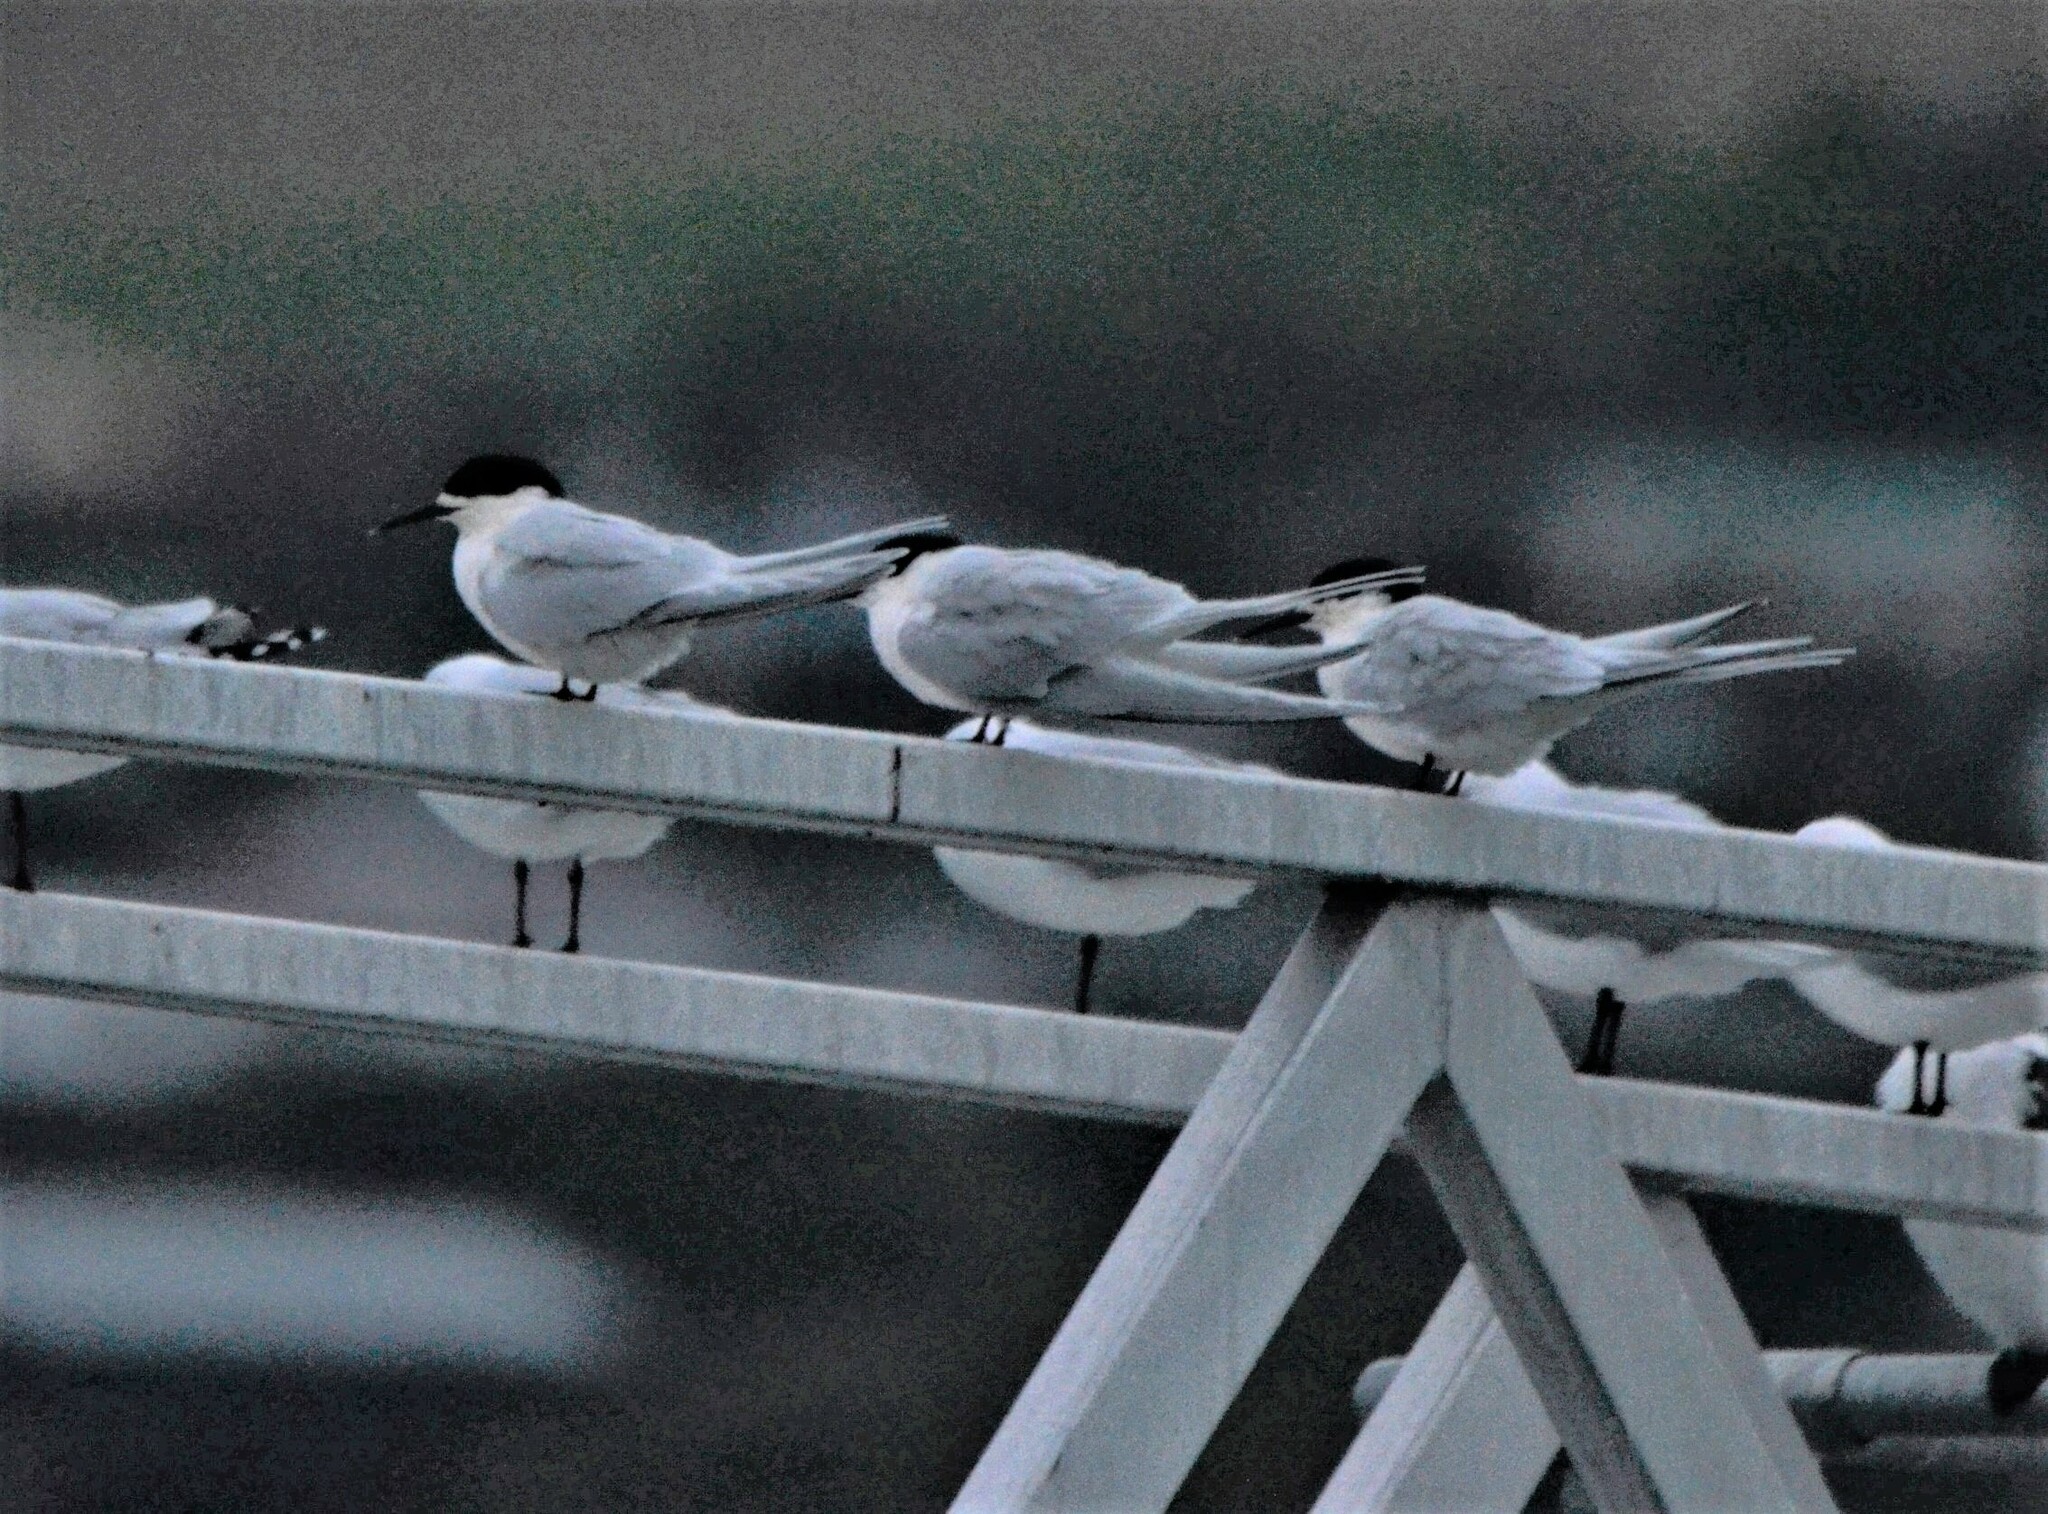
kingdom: Animalia
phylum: Chordata
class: Aves
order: Charadriiformes
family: Laridae
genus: Sterna
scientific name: Sterna striata
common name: White-fronted tern
